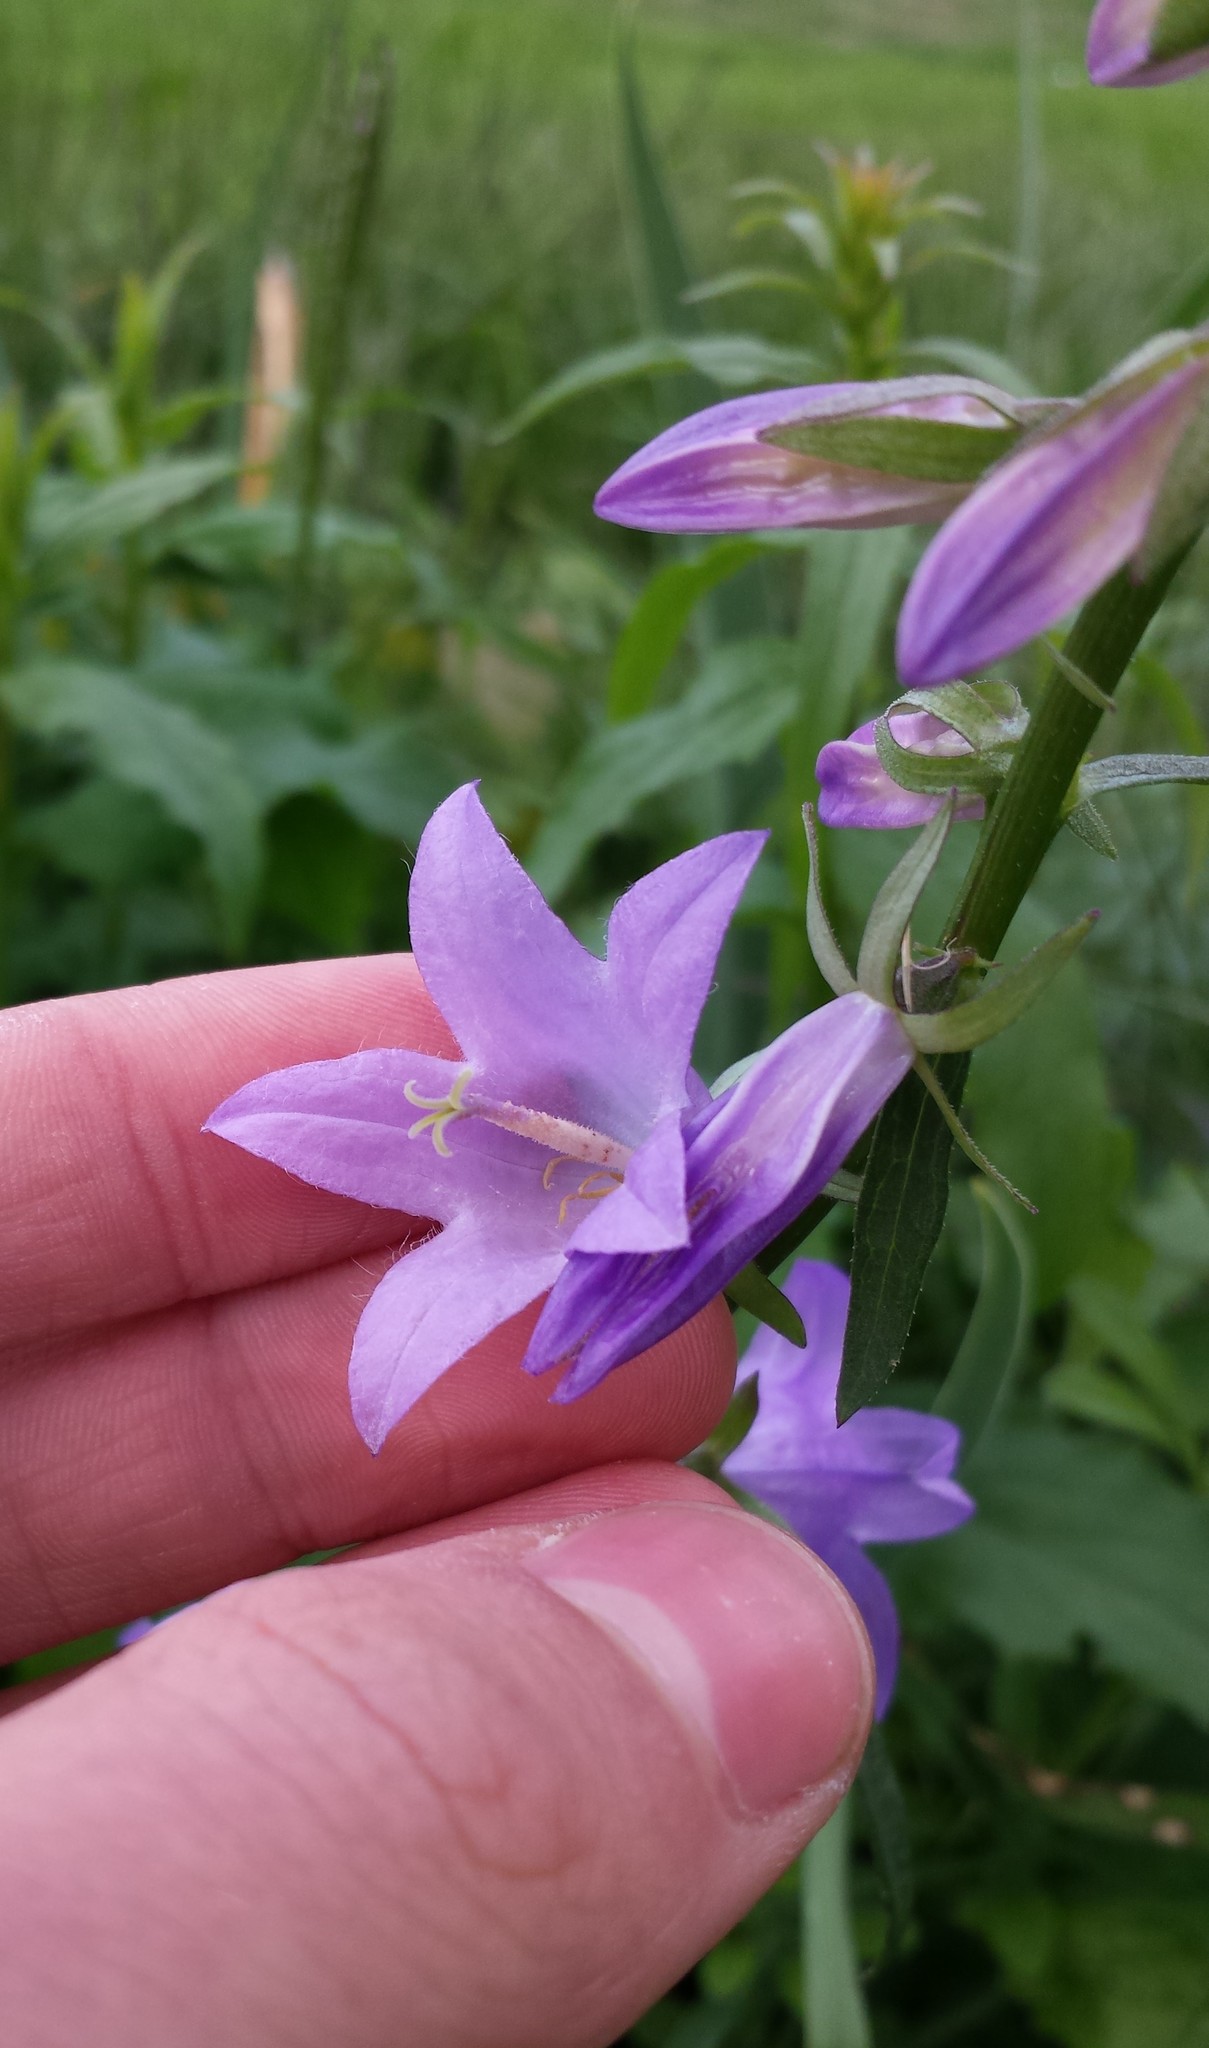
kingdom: Plantae
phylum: Tracheophyta
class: Magnoliopsida
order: Asterales
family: Campanulaceae
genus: Campanula
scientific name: Campanula rapunculoides
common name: Creeping bellflower
